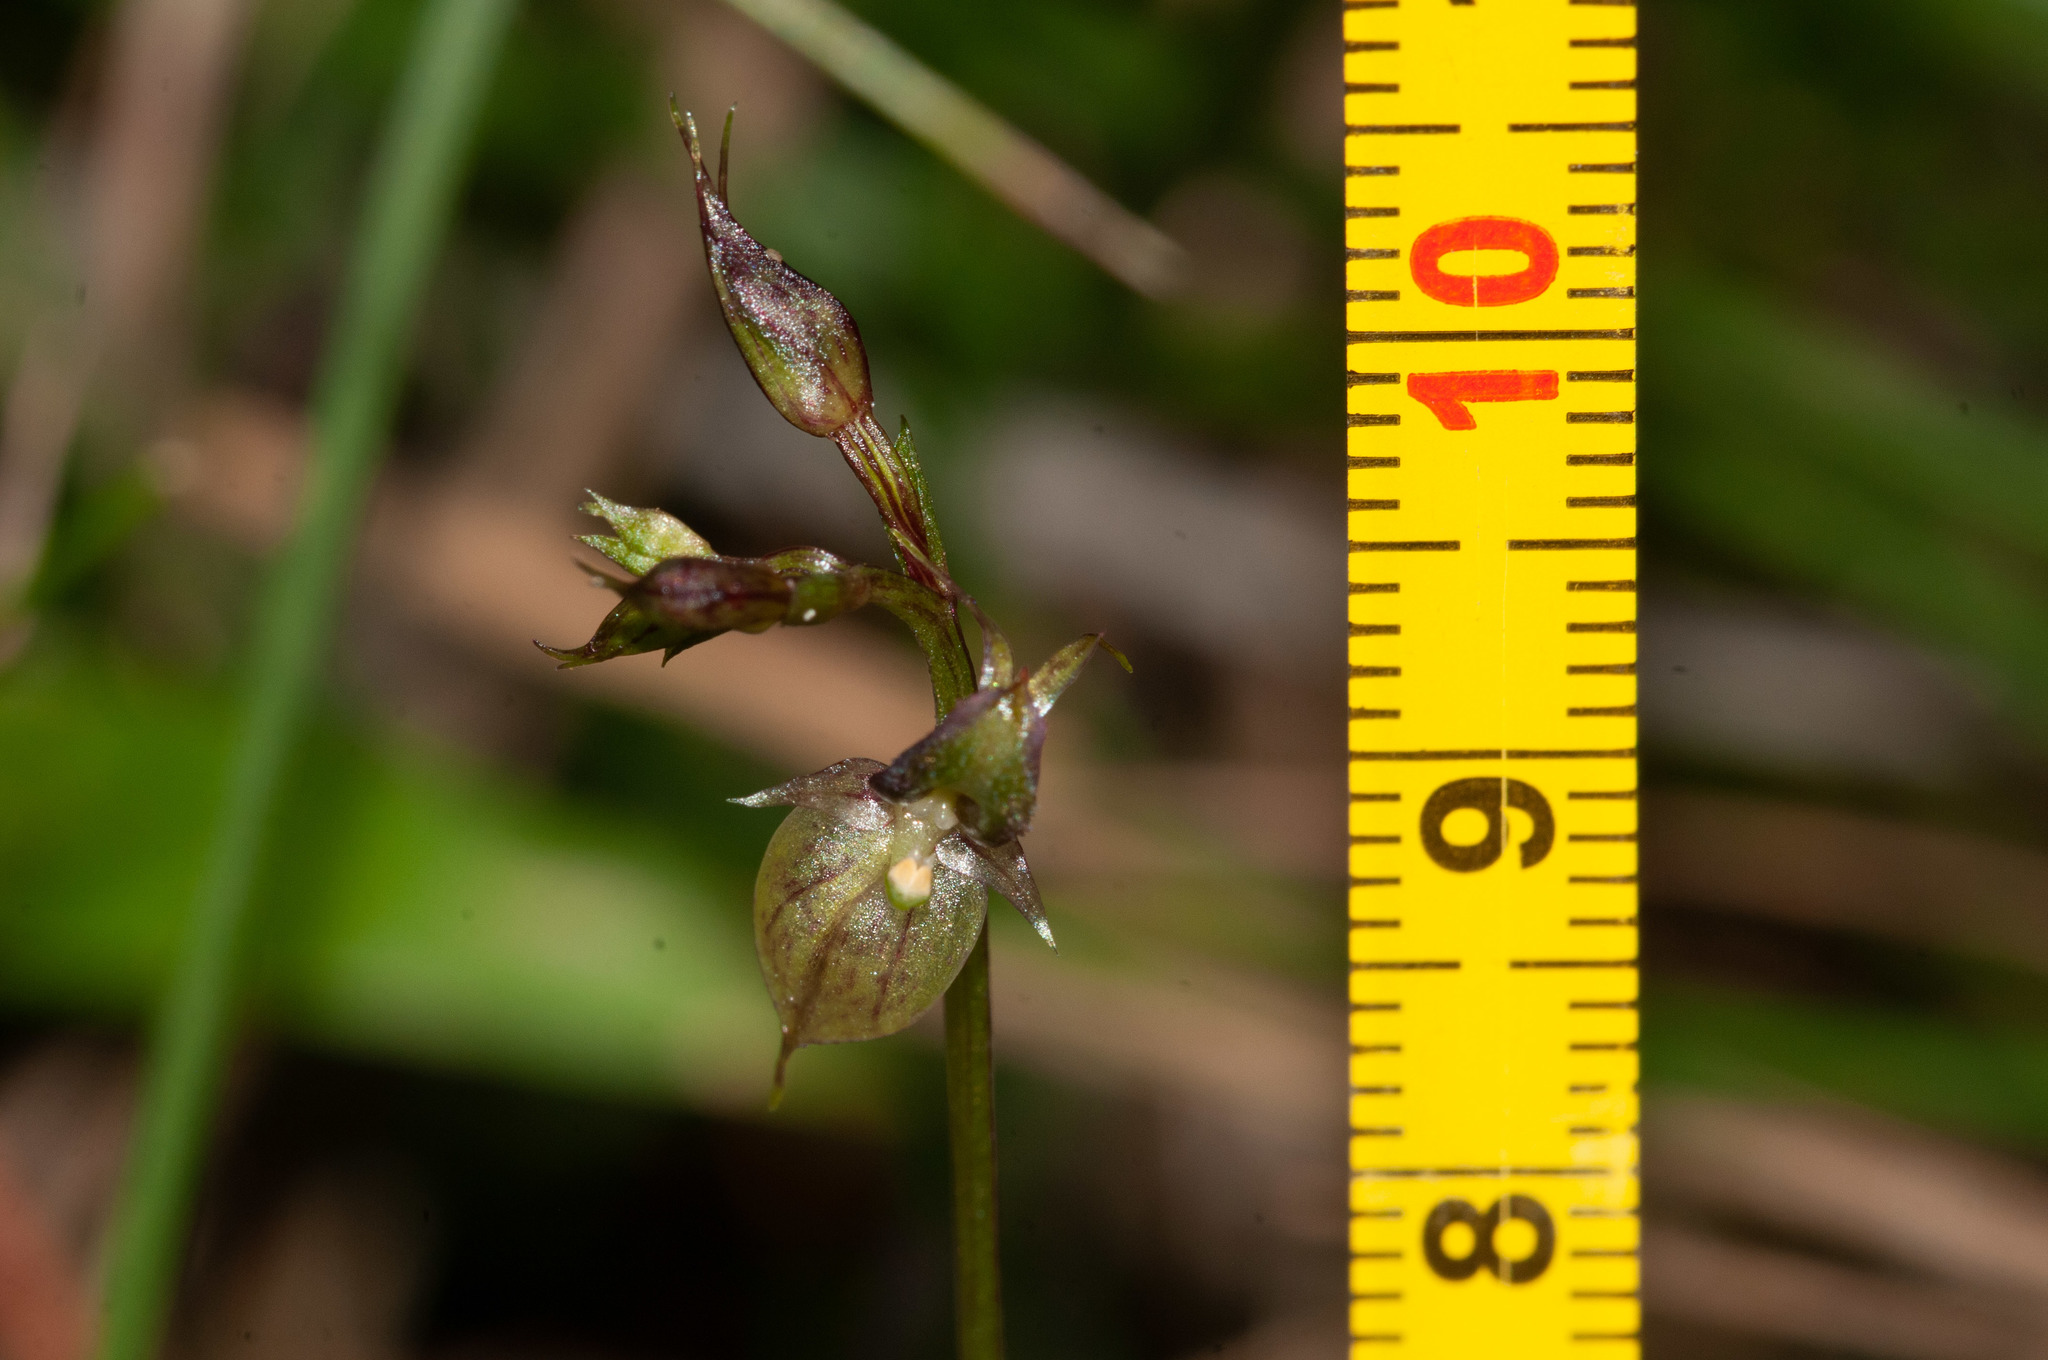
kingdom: Plantae
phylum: Tracheophyta
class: Liliopsida
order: Asparagales
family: Orchidaceae
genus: Acianthus
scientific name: Acianthus fornicatus
